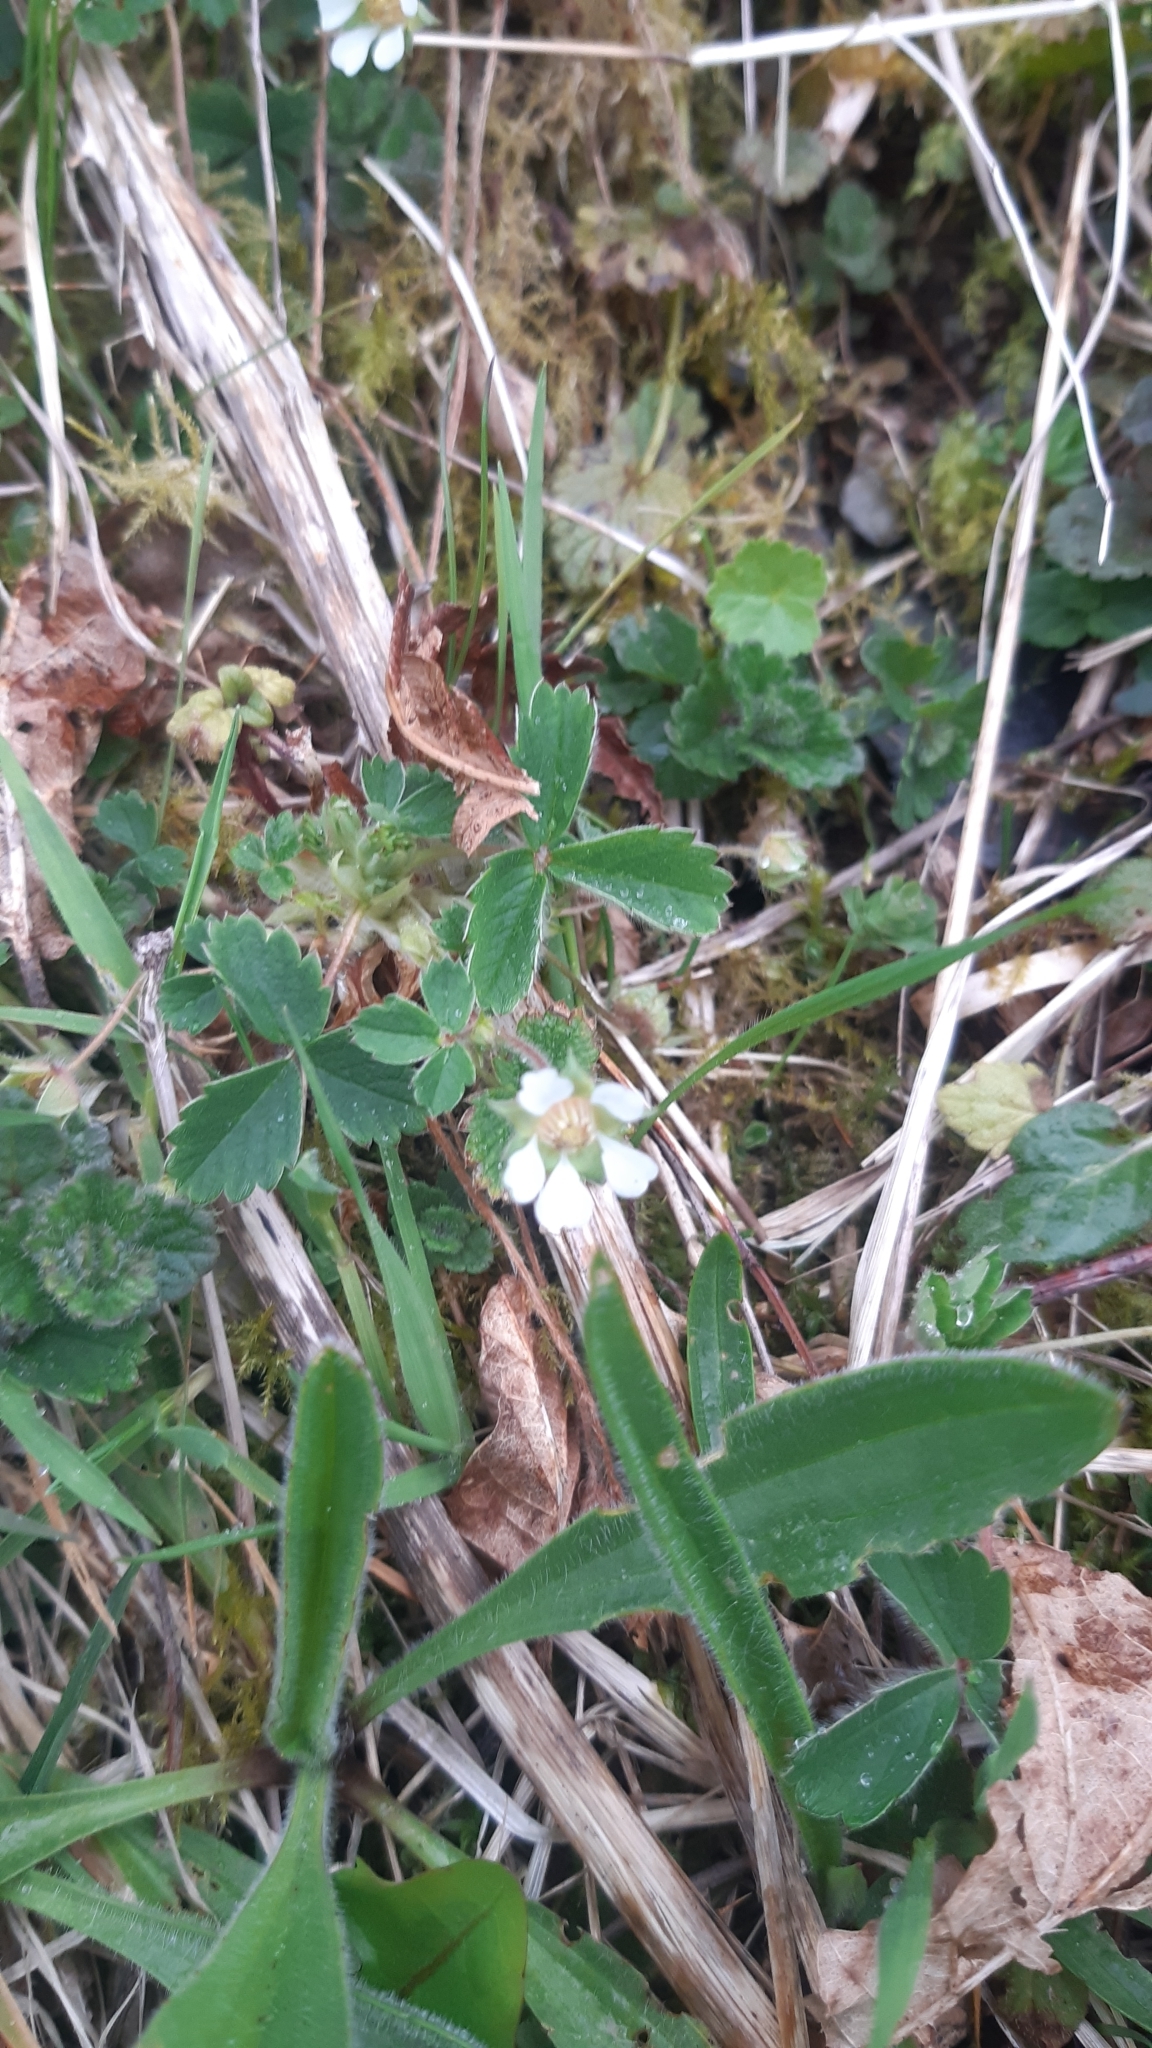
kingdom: Plantae
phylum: Tracheophyta
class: Magnoliopsida
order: Rosales
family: Rosaceae
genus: Potentilla
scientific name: Potentilla sterilis
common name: Barren strawberry
